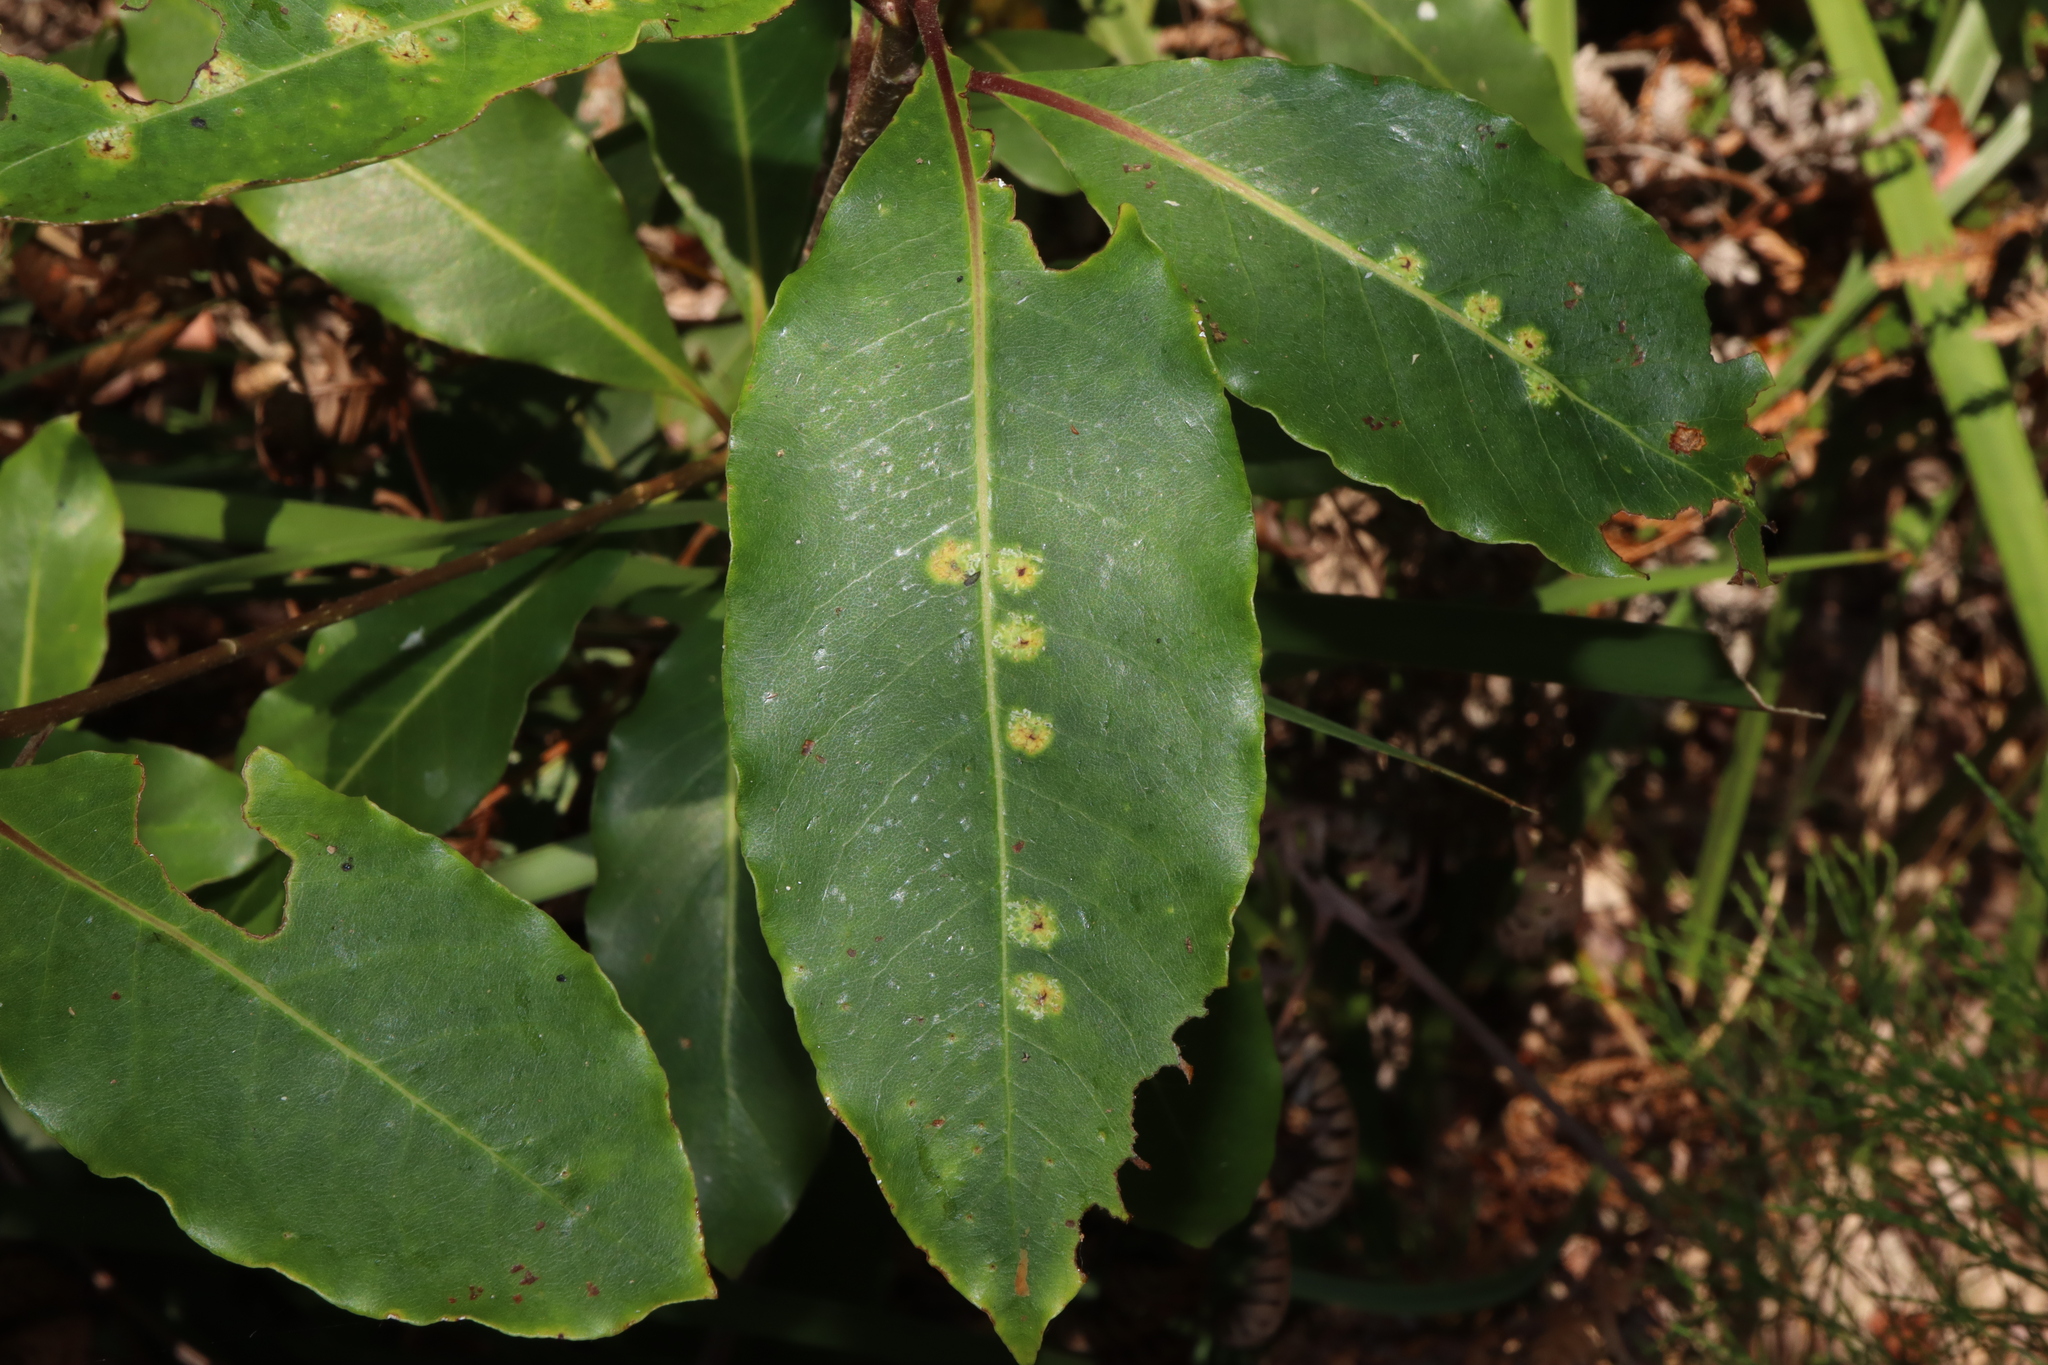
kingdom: Animalia
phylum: Arthropoda
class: Insecta
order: Diptera
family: Agromyzidae
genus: Phytoliriomyza
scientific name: Phytoliriomyza pittosporophylli
